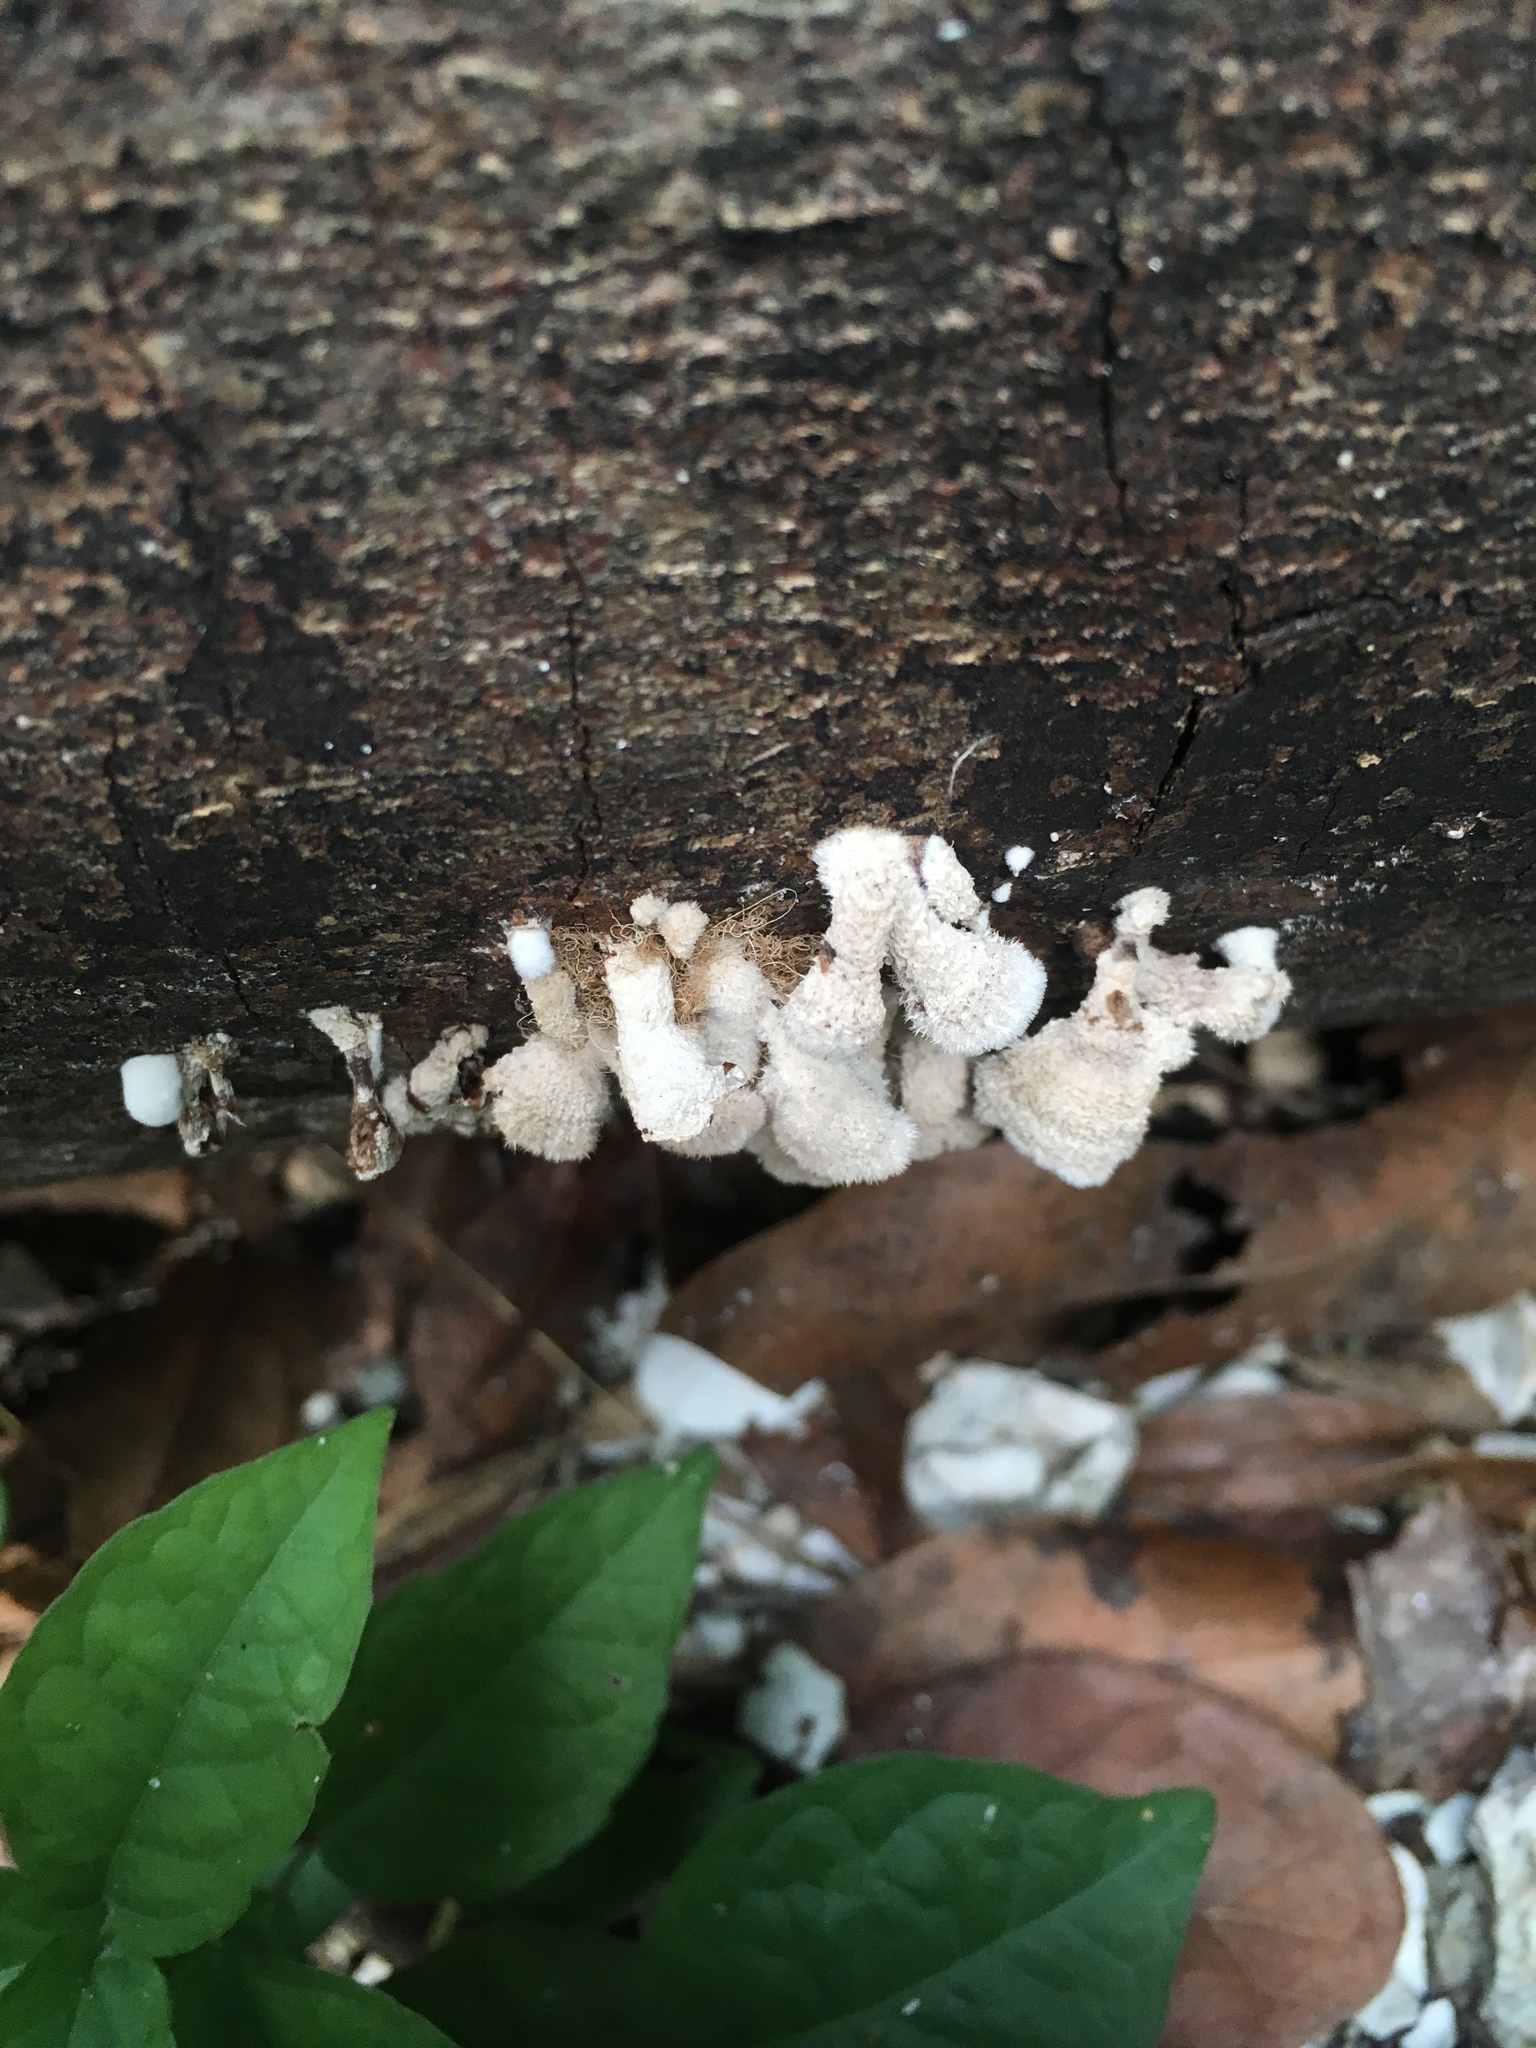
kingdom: Fungi
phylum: Basidiomycota
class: Agaricomycetes
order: Agaricales
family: Schizophyllaceae
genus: Schizophyllum
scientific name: Schizophyllum commune
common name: Common porecrust
